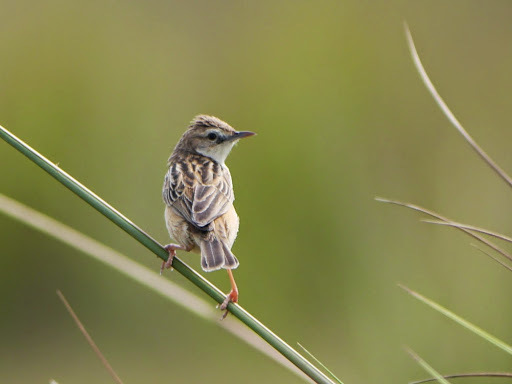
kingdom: Animalia
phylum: Chordata
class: Aves
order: Passeriformes
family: Cisticolidae
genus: Cisticola
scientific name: Cisticola cinnamomeus
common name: Pale-crowned cisticola
